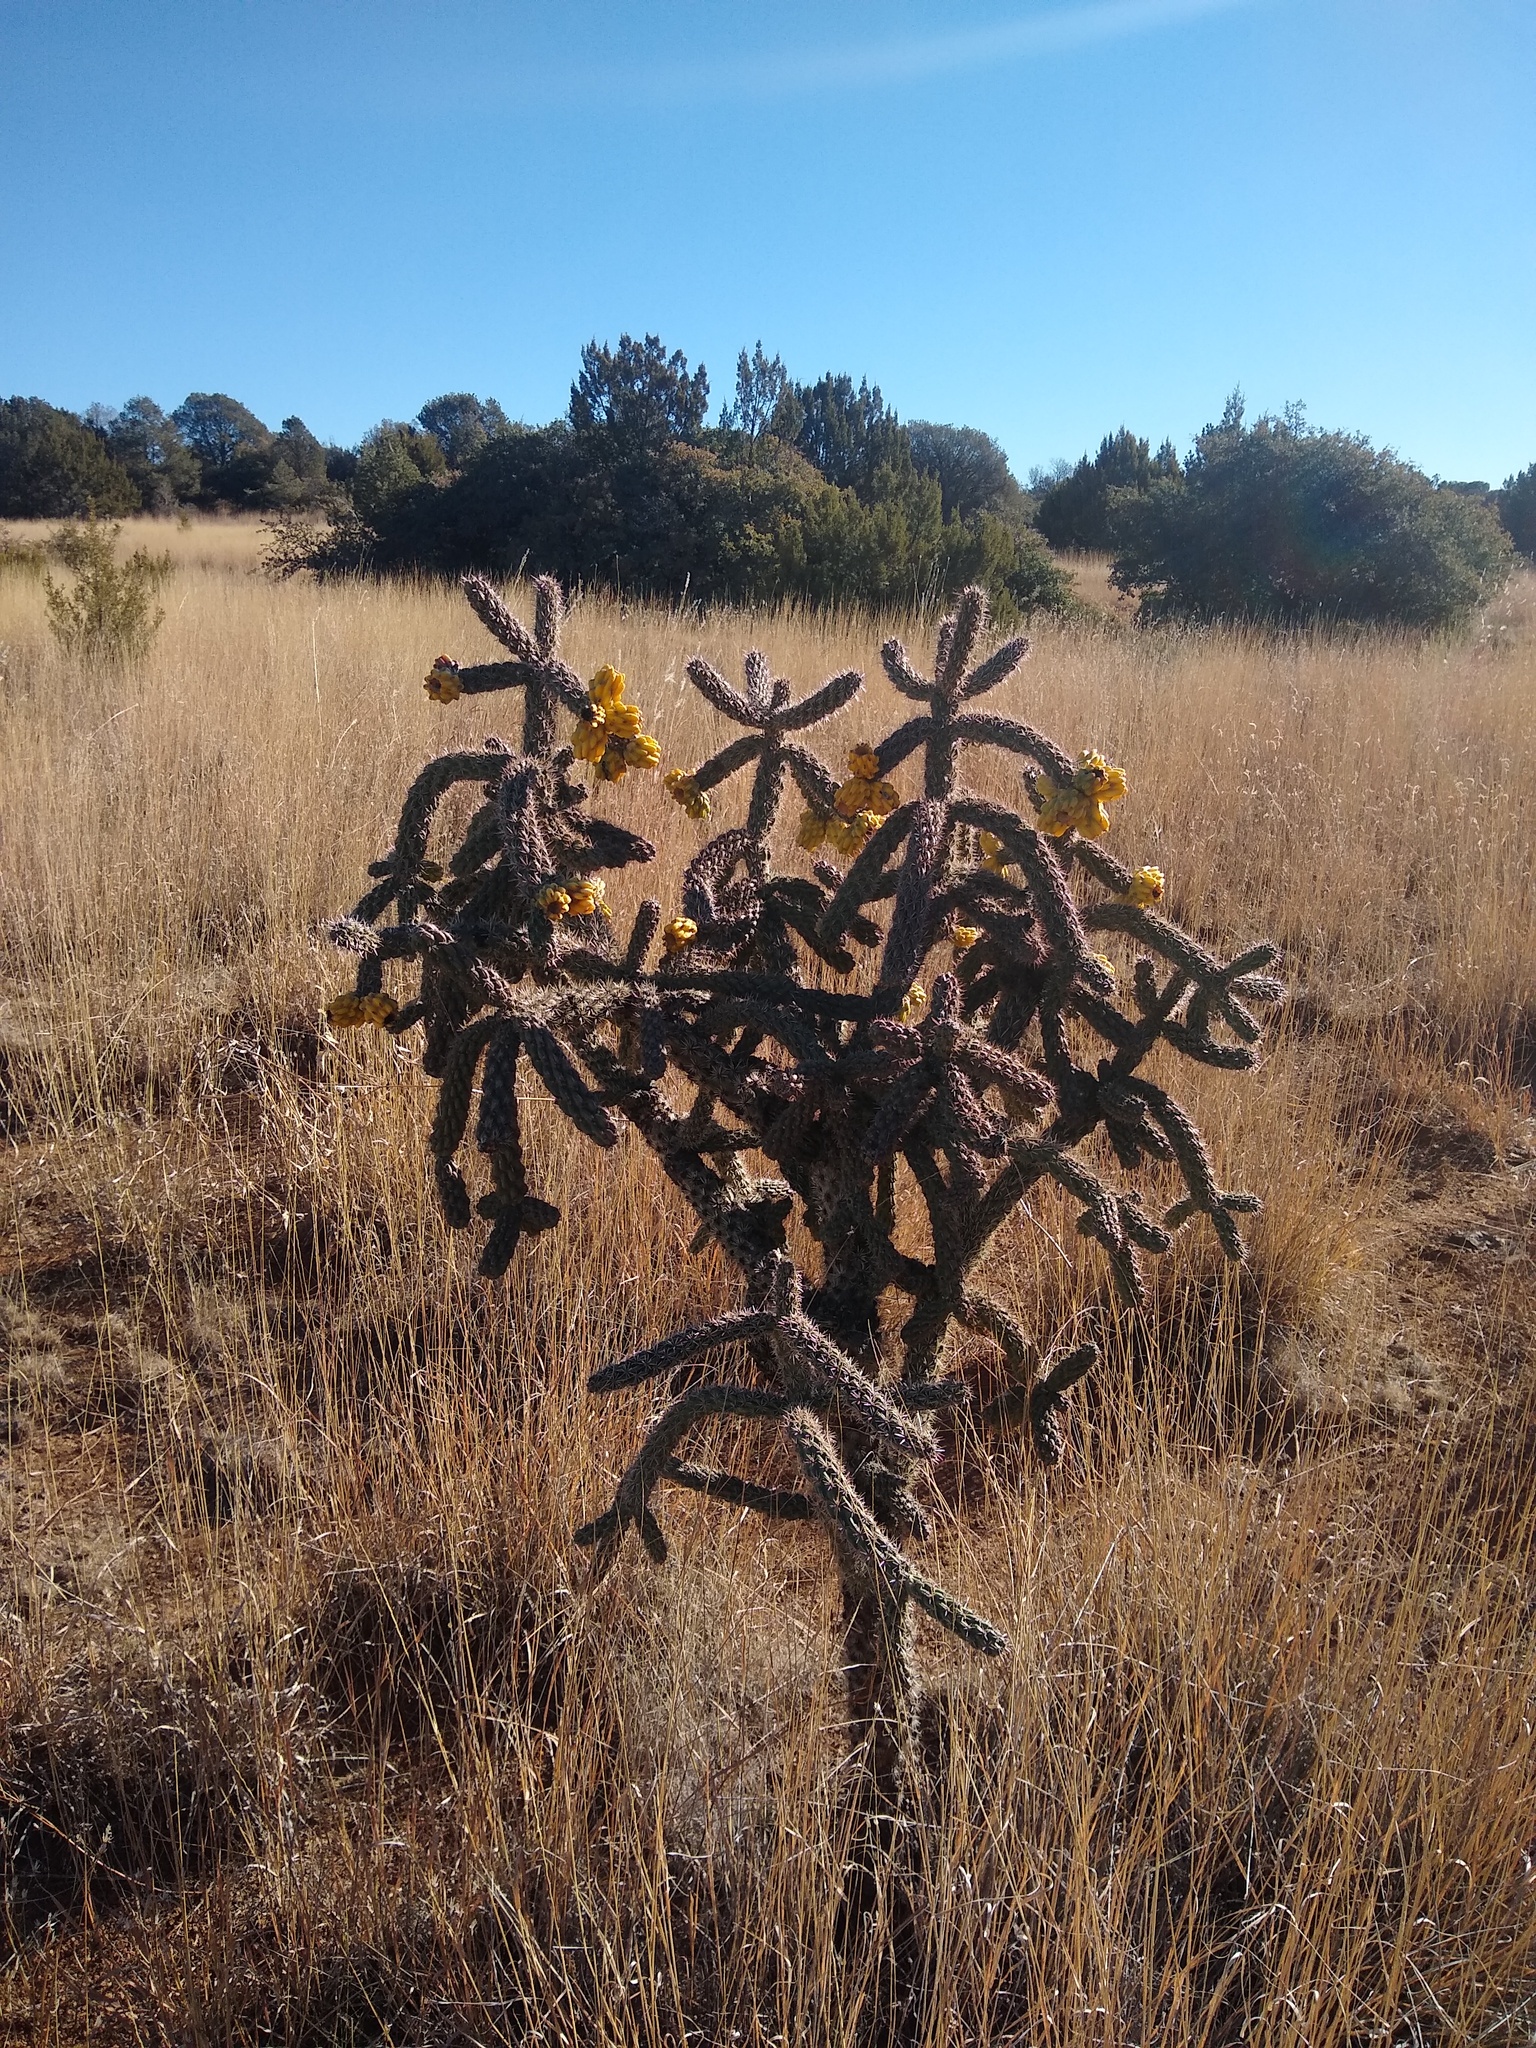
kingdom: Plantae
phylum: Tracheophyta
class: Magnoliopsida
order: Caryophyllales
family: Cactaceae
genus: Cylindropuntia
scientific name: Cylindropuntia imbricata
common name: Candelabrum cactus
